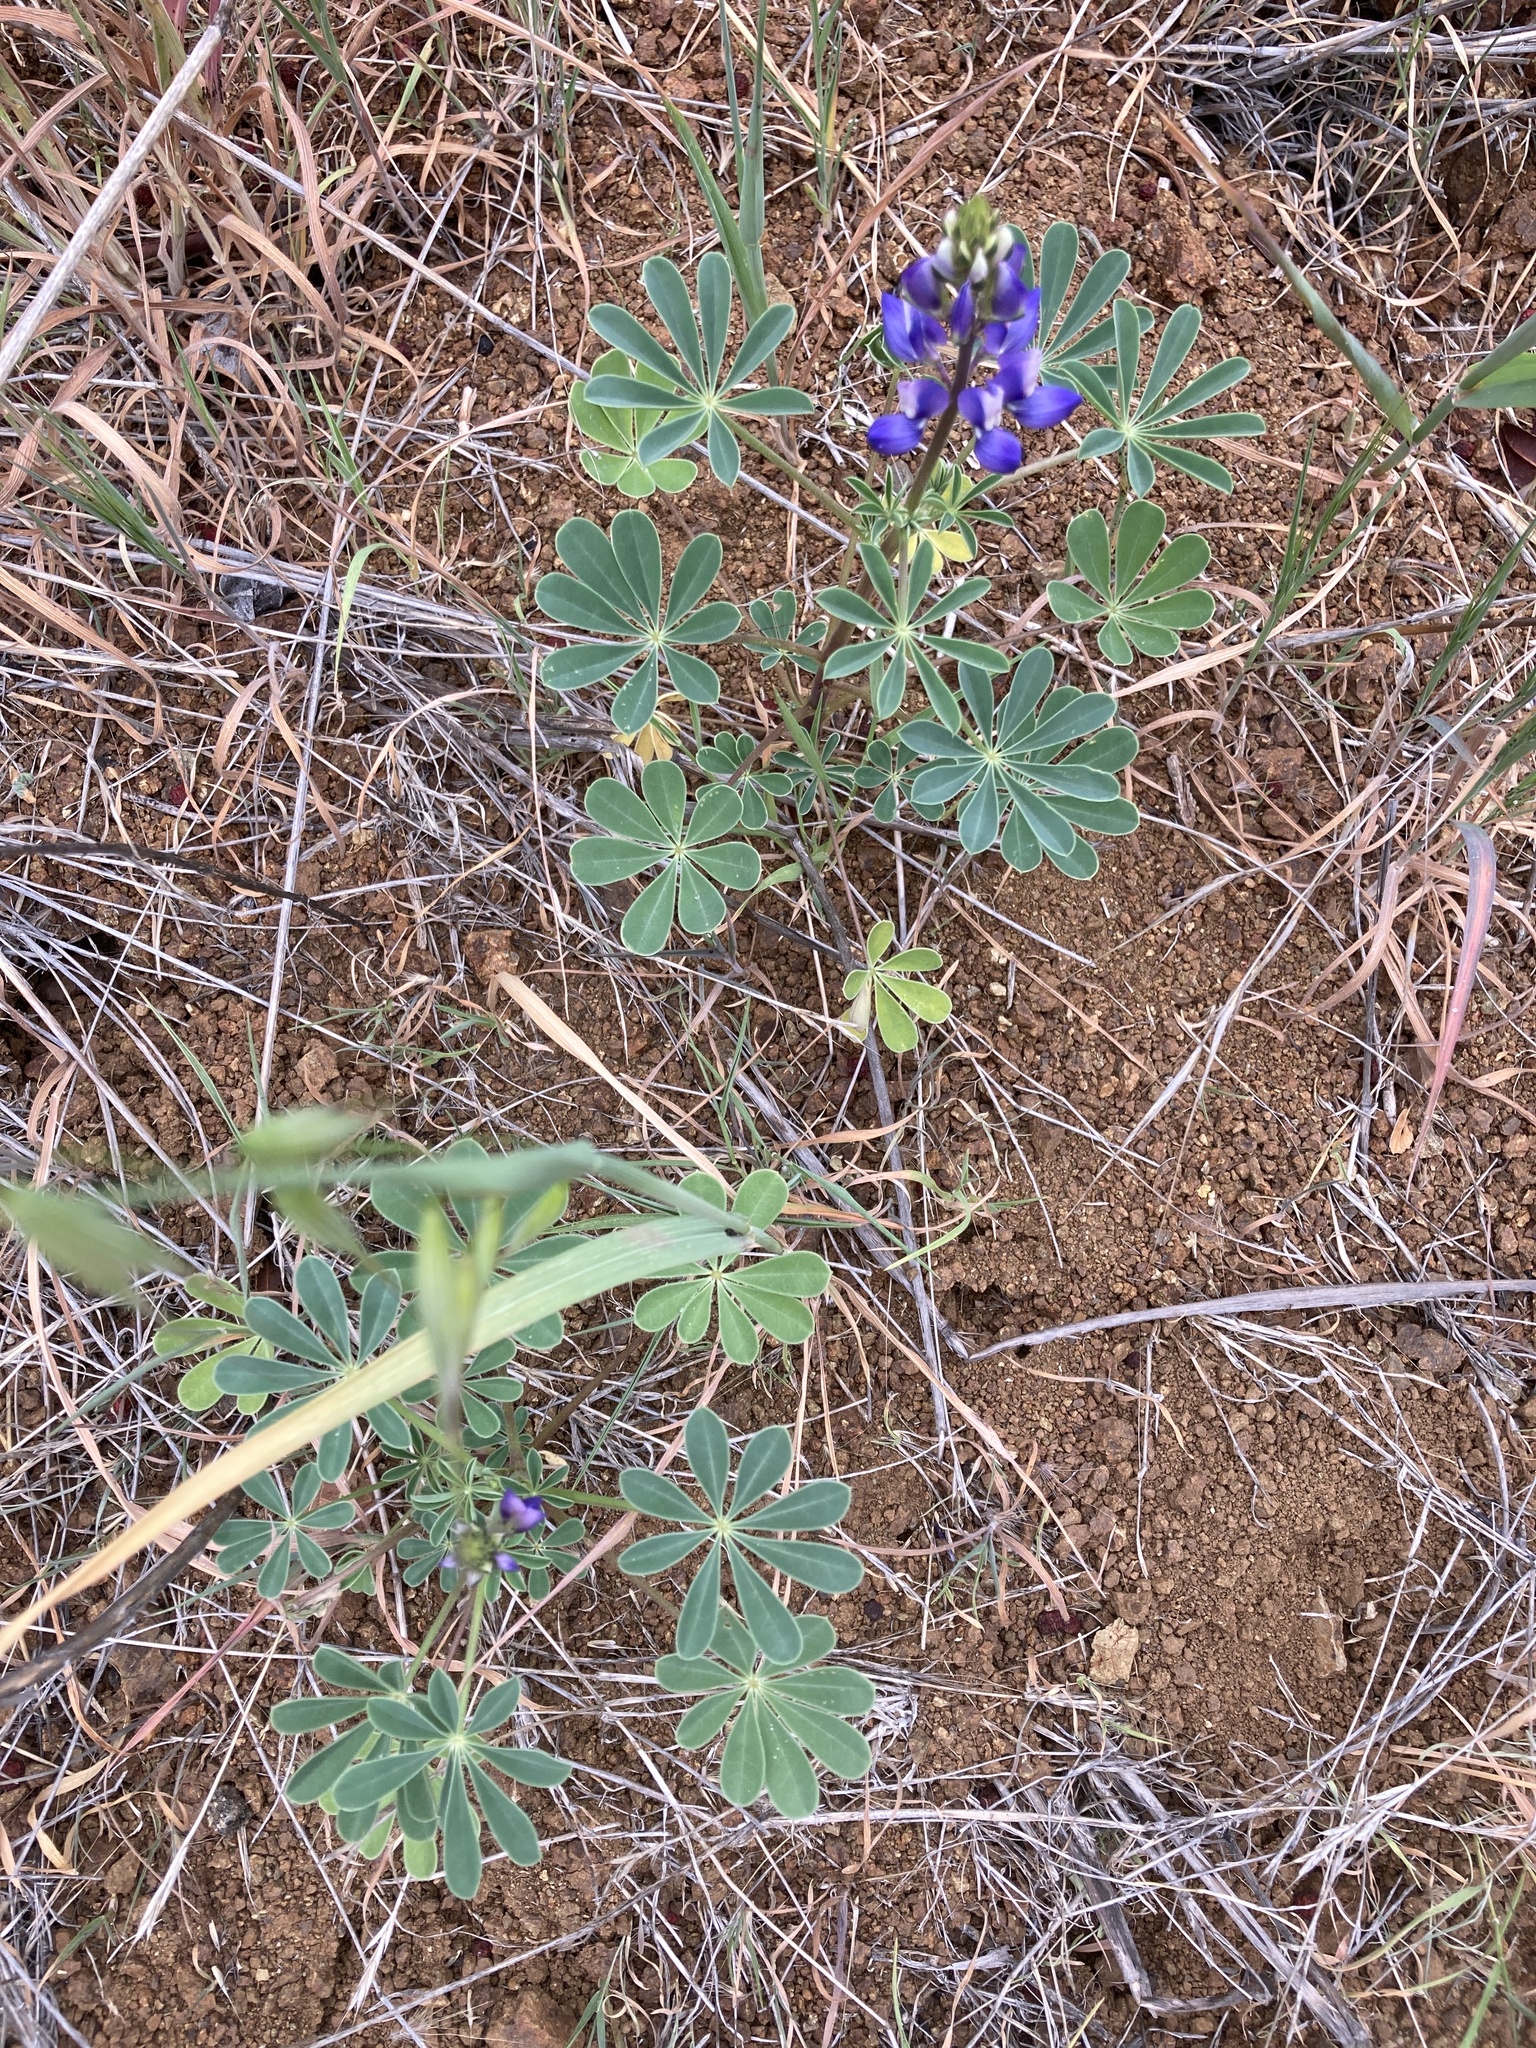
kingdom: Plantae
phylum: Tracheophyta
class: Magnoliopsida
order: Fabales
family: Fabaceae
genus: Lupinus
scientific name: Lupinus succulentus
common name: Arroyo lupine
